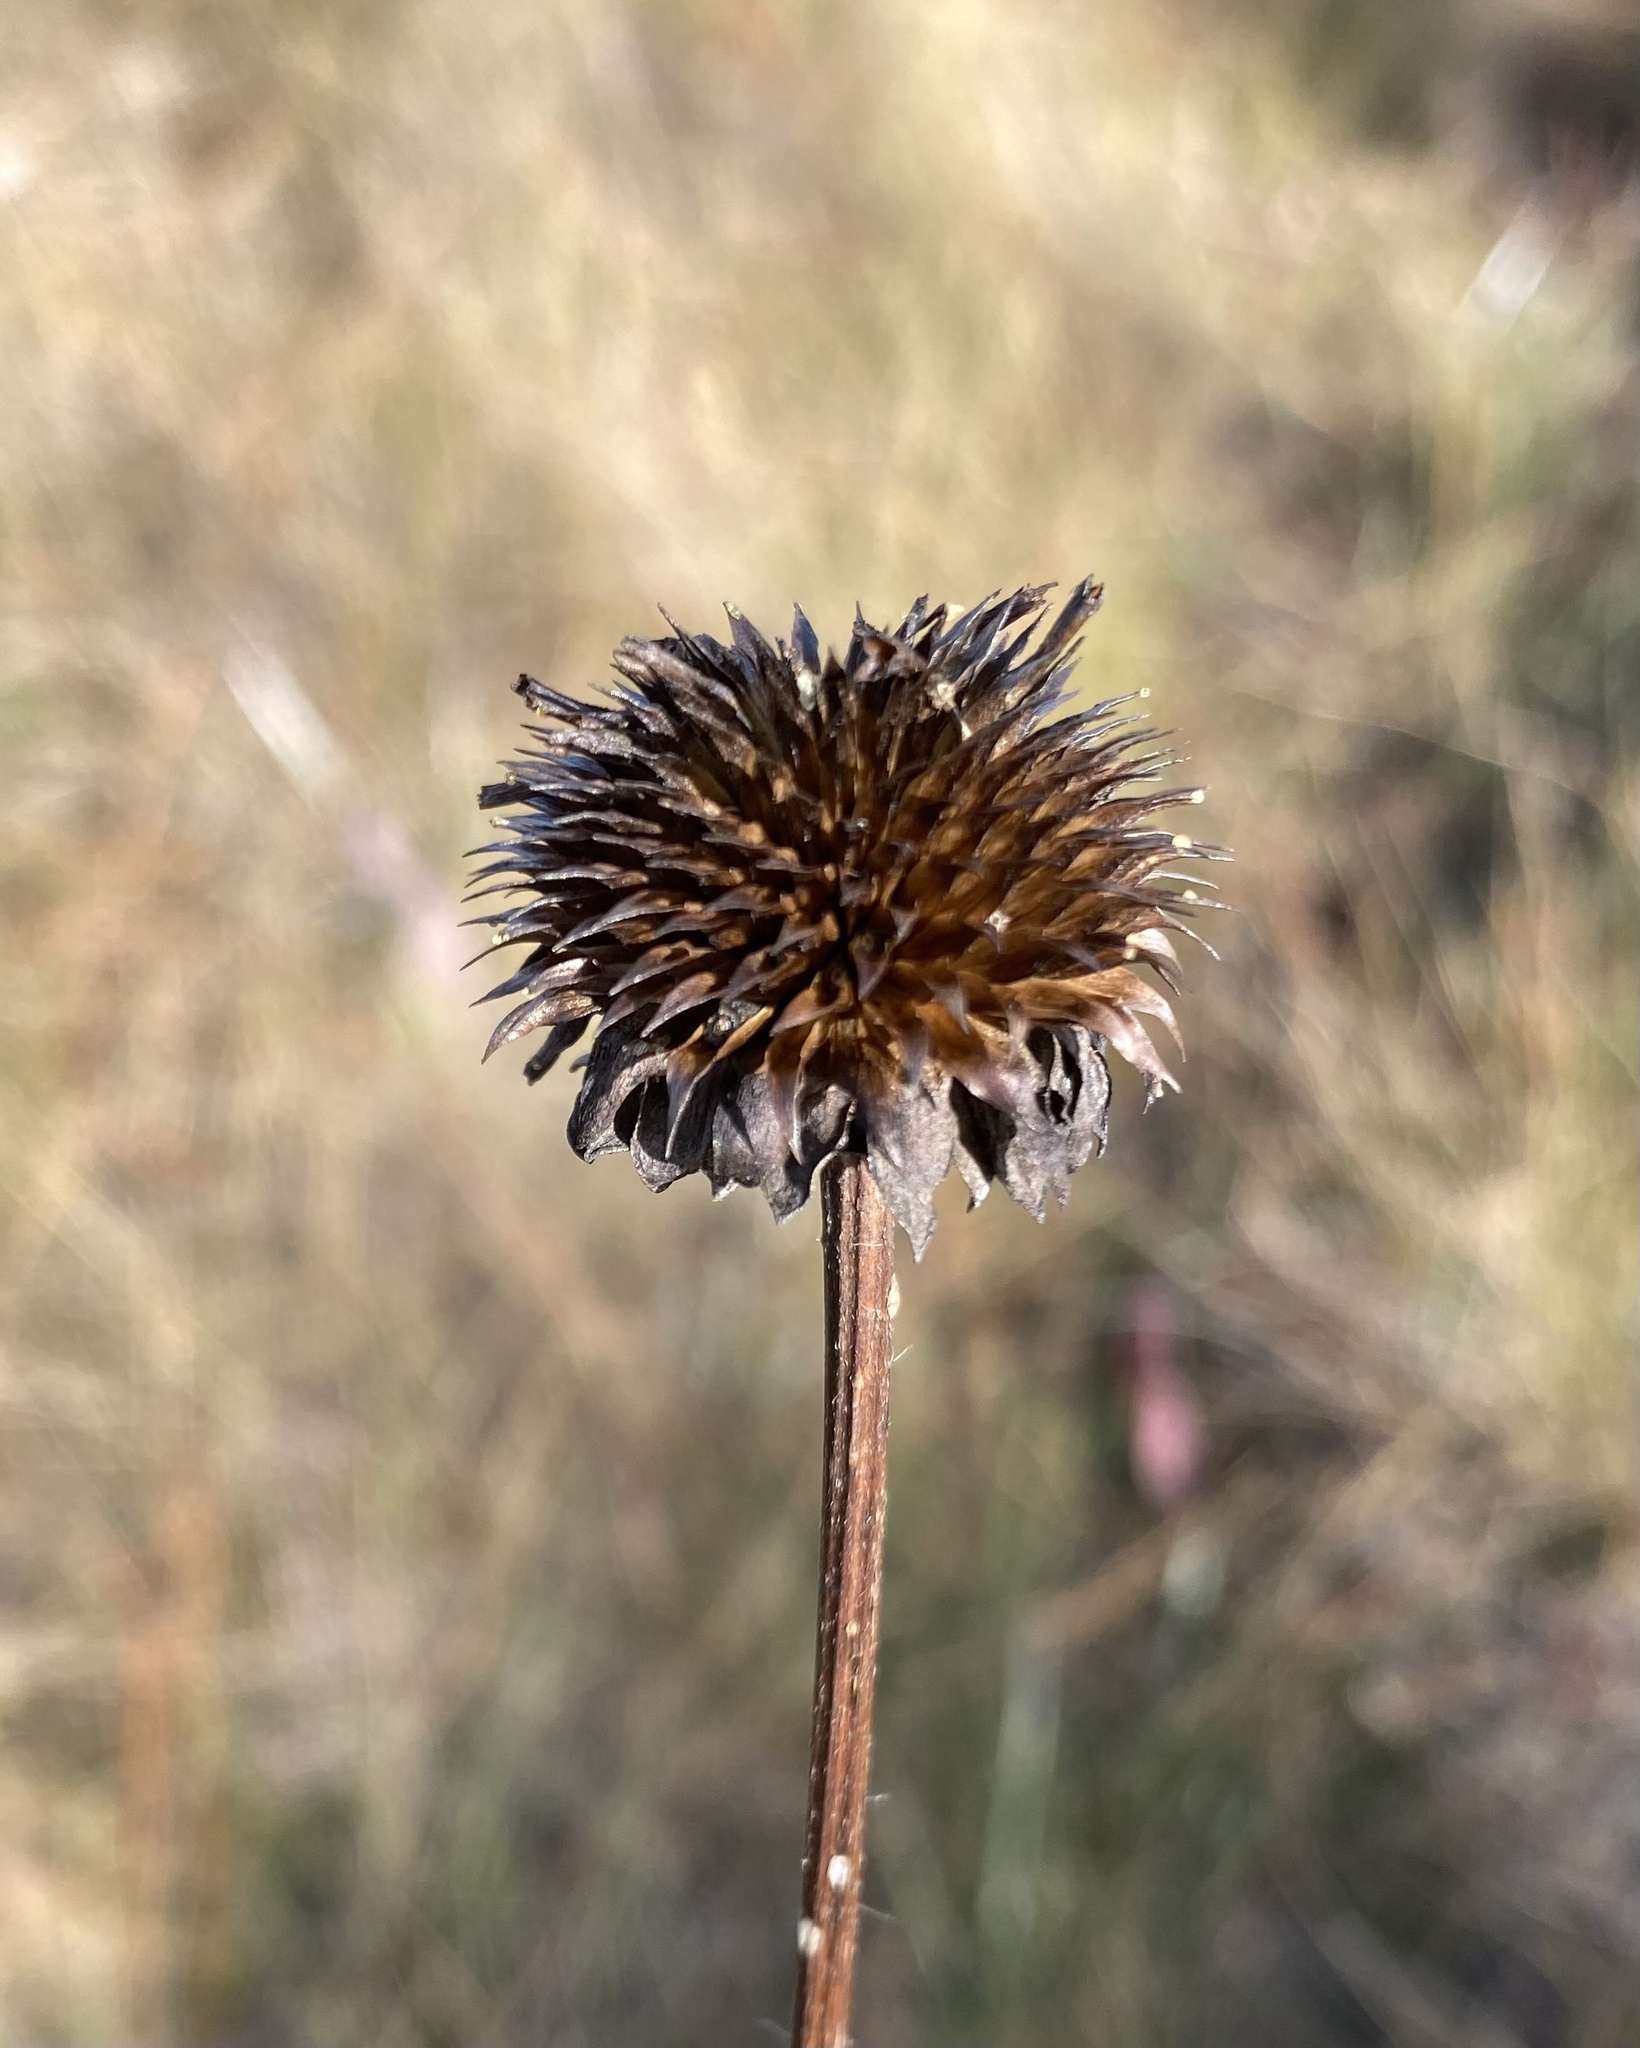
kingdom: Plantae
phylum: Tracheophyta
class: Magnoliopsida
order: Asterales
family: Asteraceae
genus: Helianthus
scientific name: Helianthus radula
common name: Pineland sunflower
